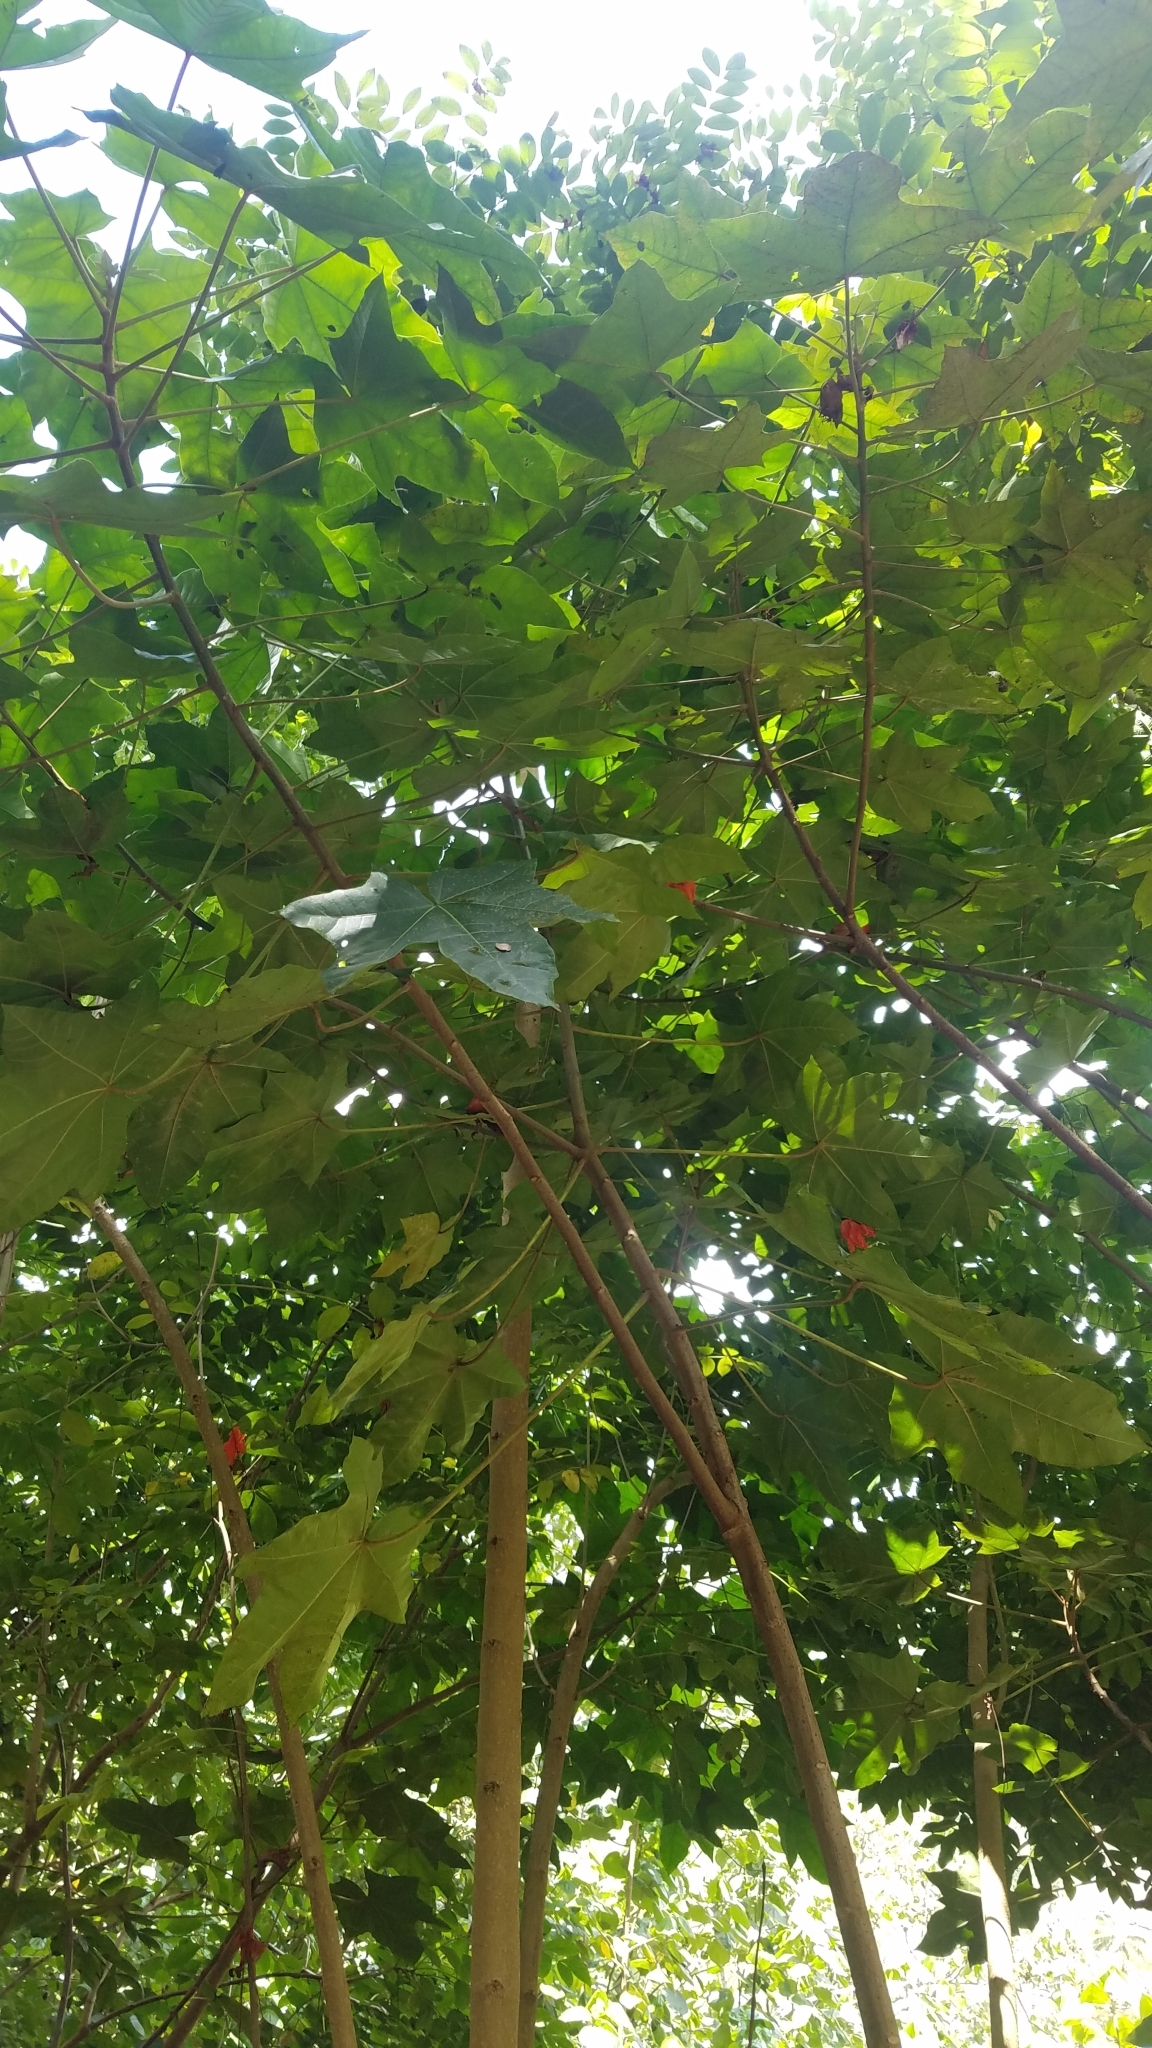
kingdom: Plantae
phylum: Tracheophyta
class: Magnoliopsida
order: Malpighiales
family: Euphorbiaceae
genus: Aleurites
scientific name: Aleurites moluccanus
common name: Candlenut tree
